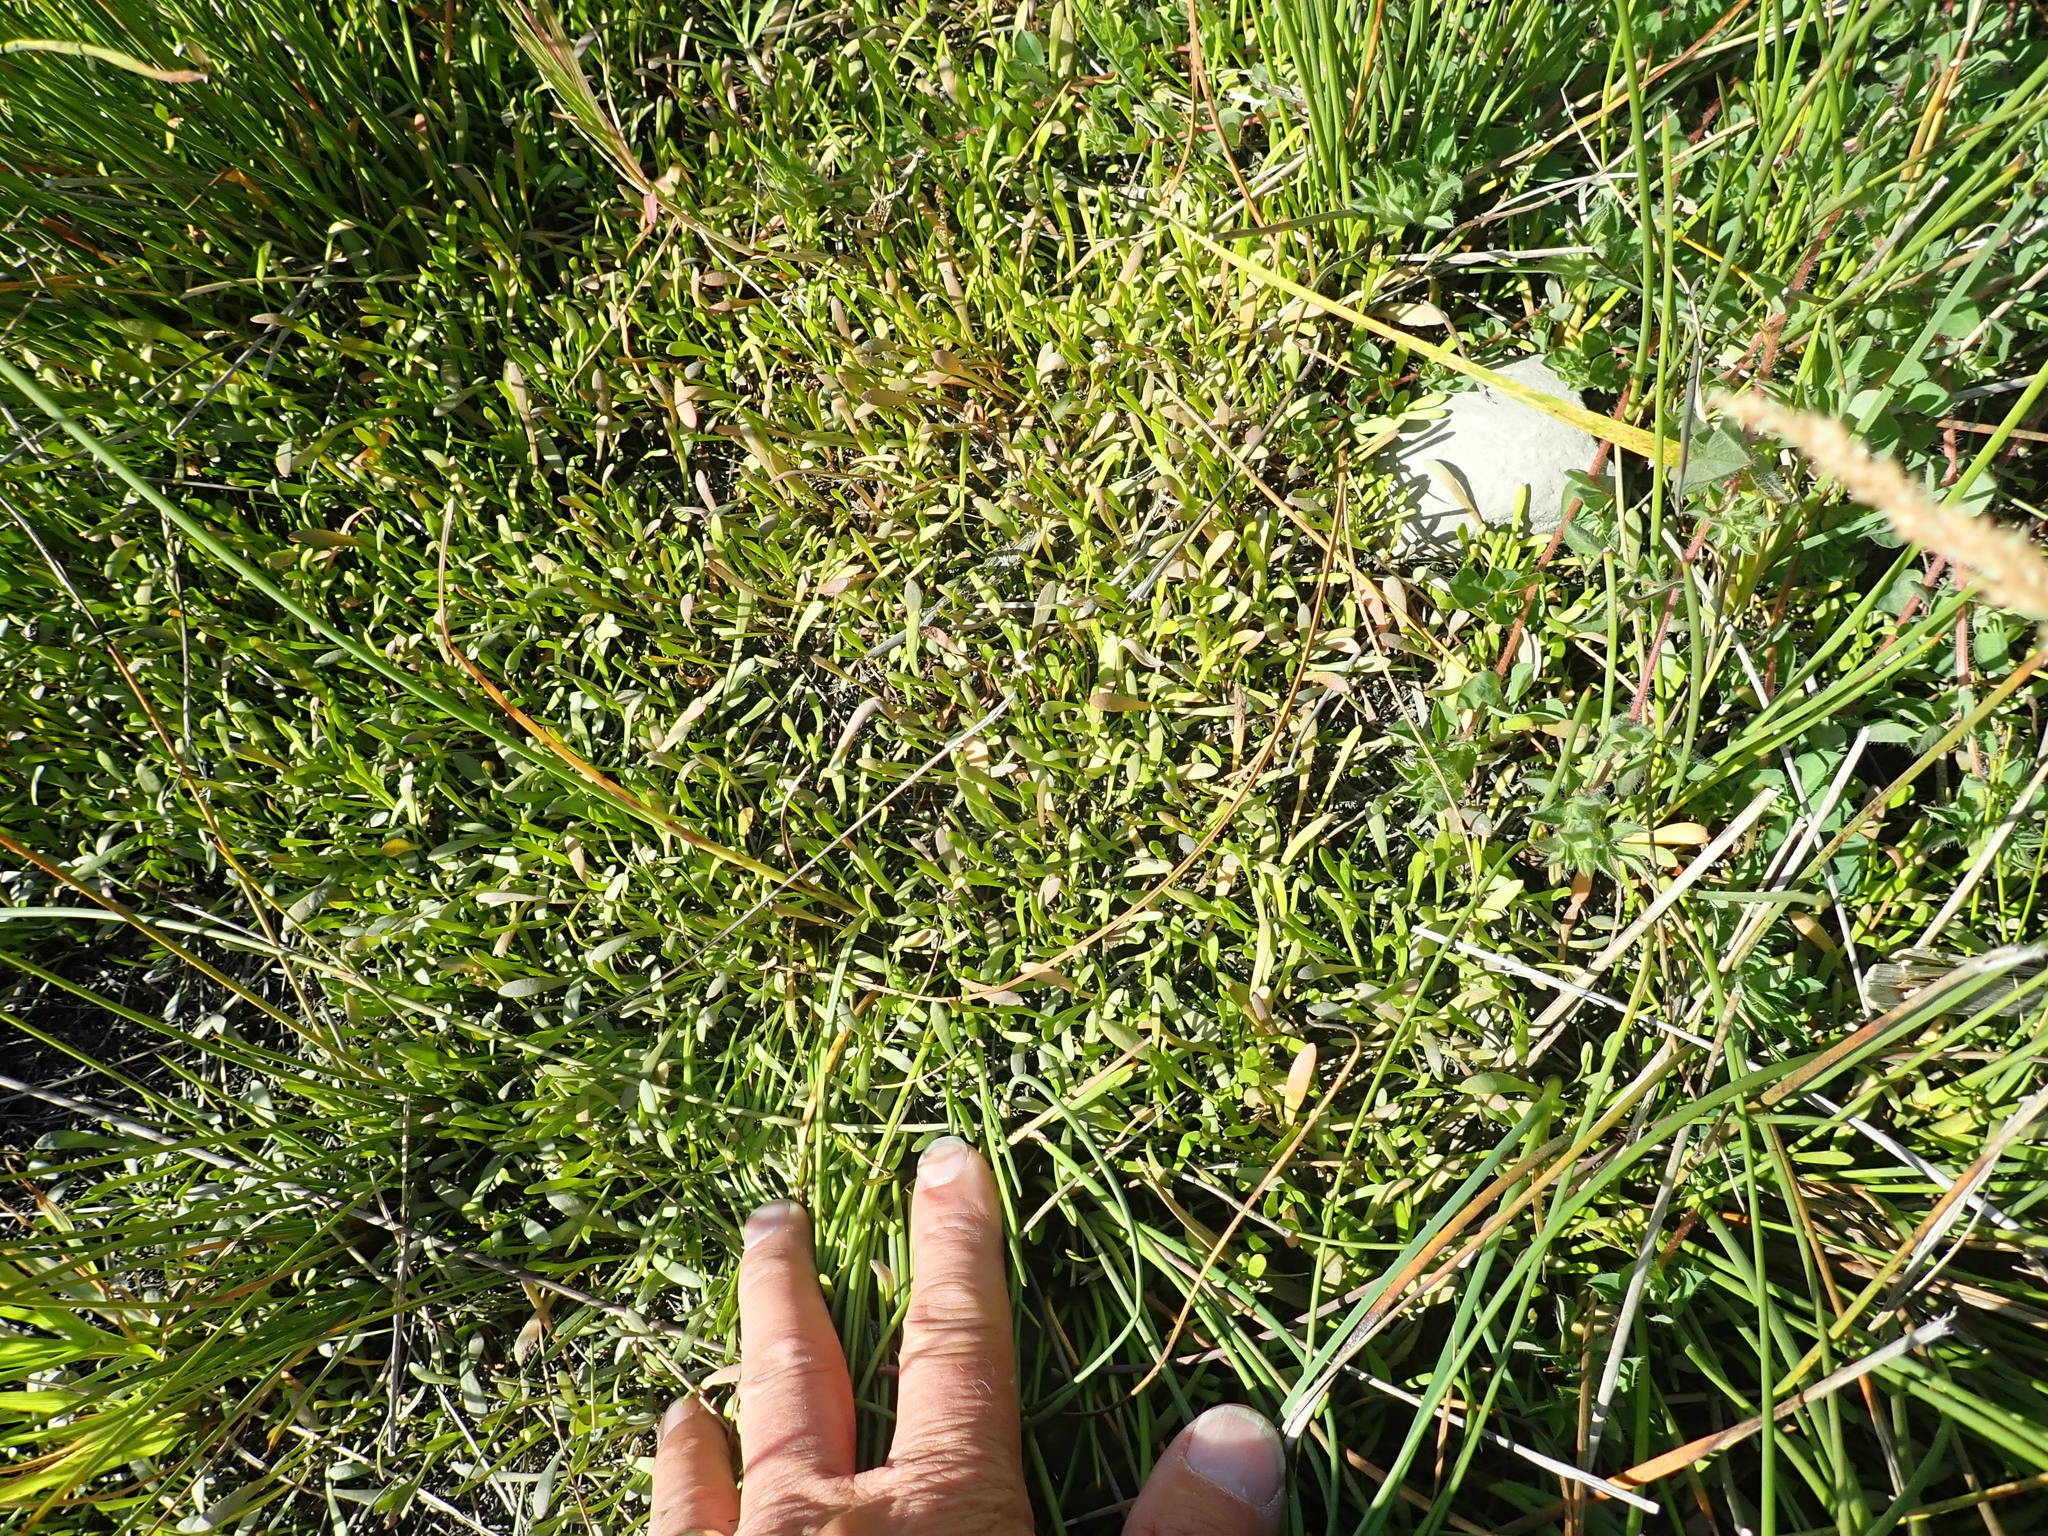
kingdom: Plantae
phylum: Tracheophyta
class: Magnoliopsida
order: Asterales
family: Goodeniaceae
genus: Goodenia
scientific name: Goodenia radicans
